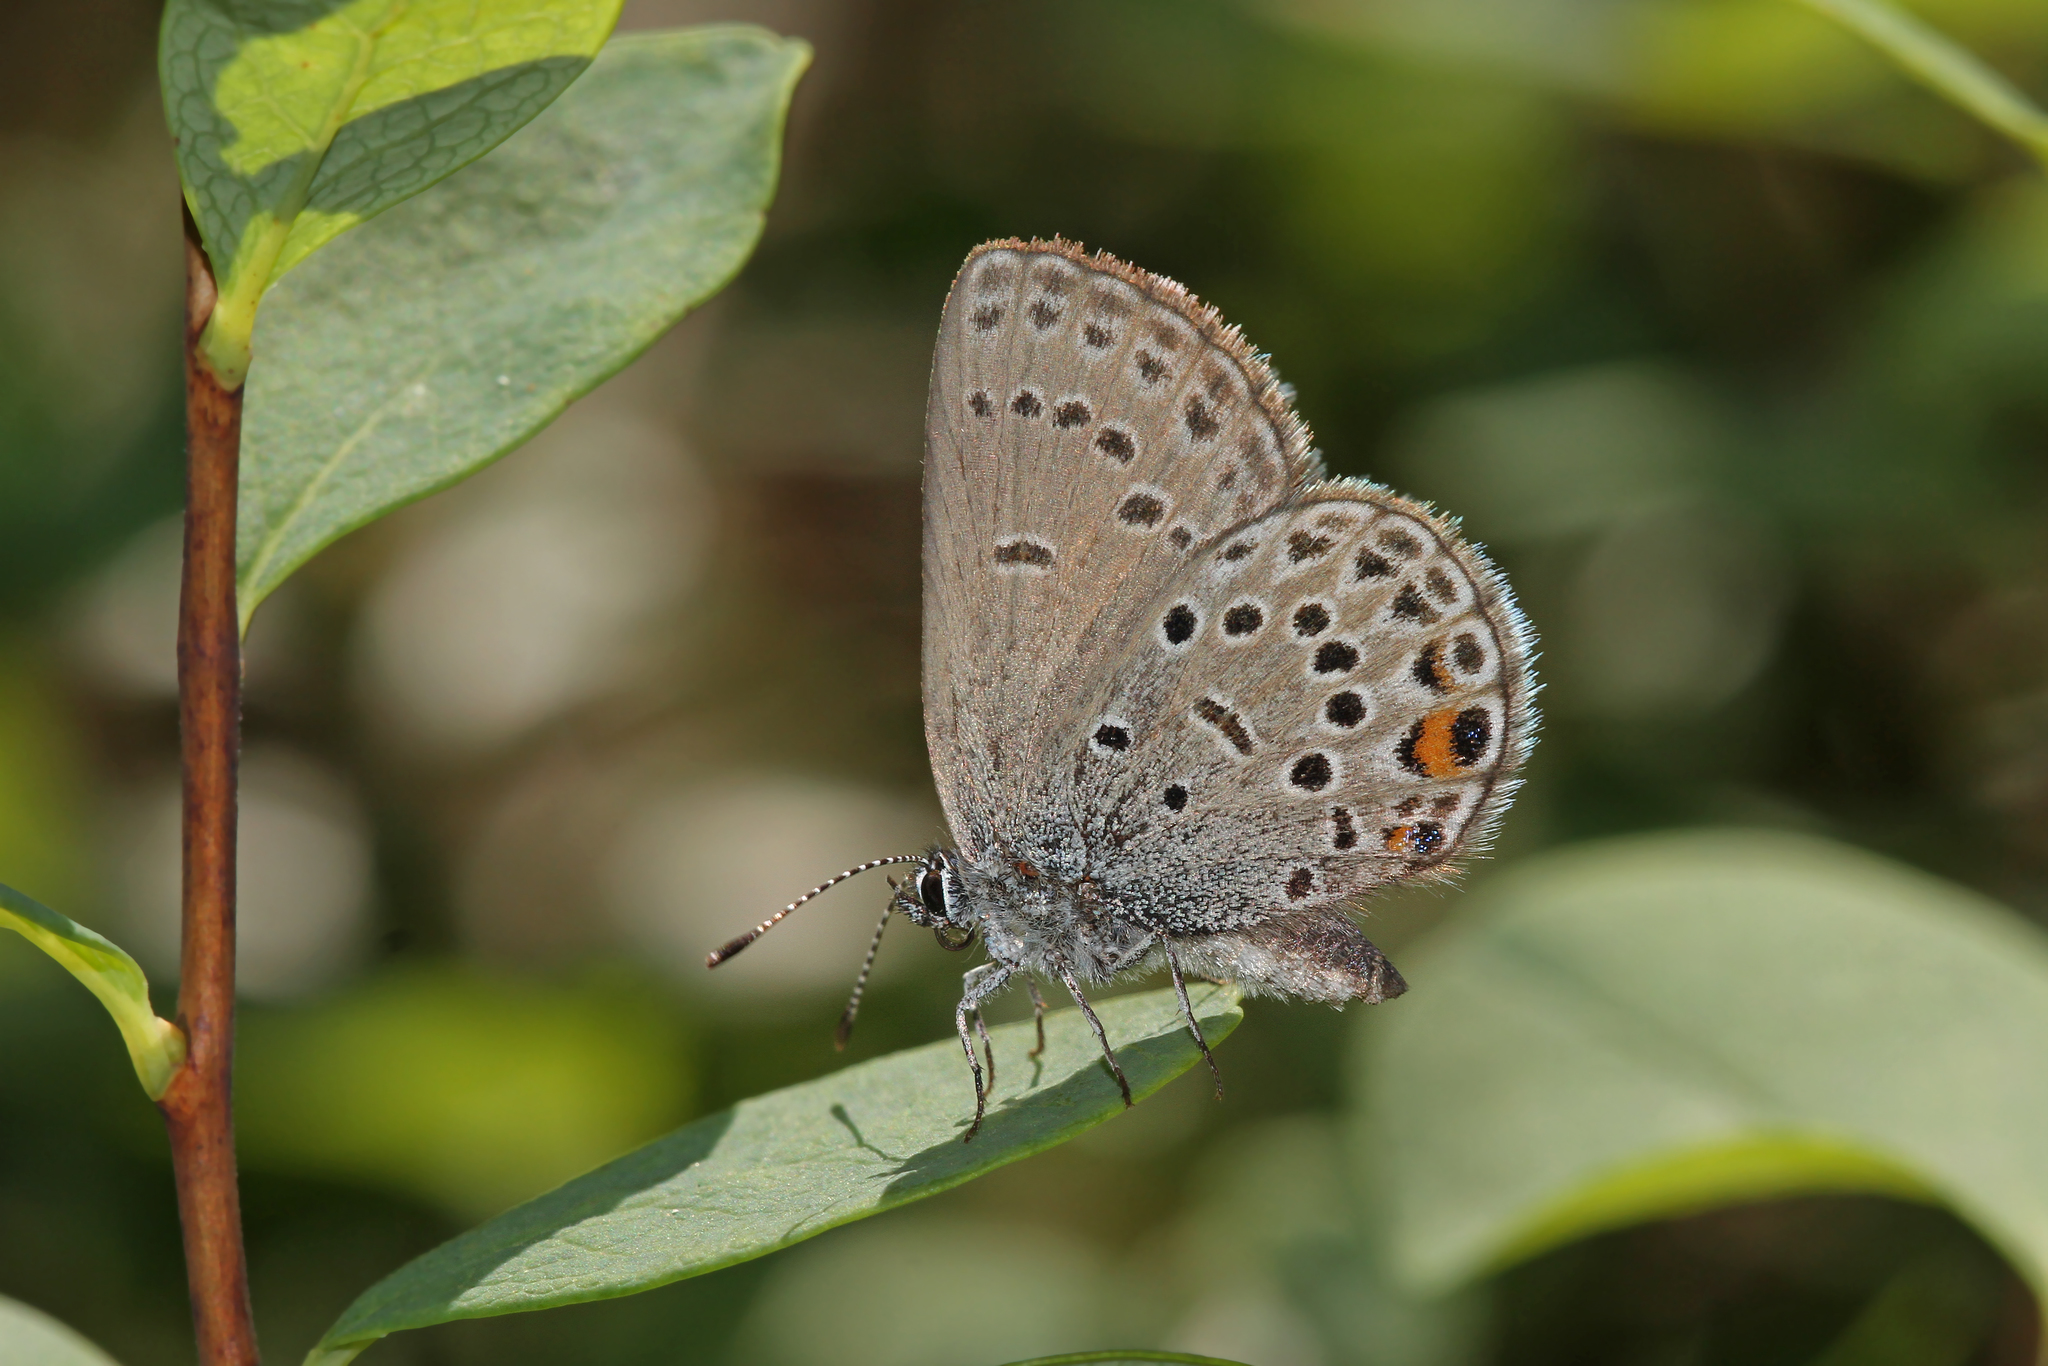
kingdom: Animalia
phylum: Arthropoda
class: Insecta
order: Lepidoptera
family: Lycaenidae
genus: Vacciniina
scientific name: Vacciniina optilete
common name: Cranberry blue
